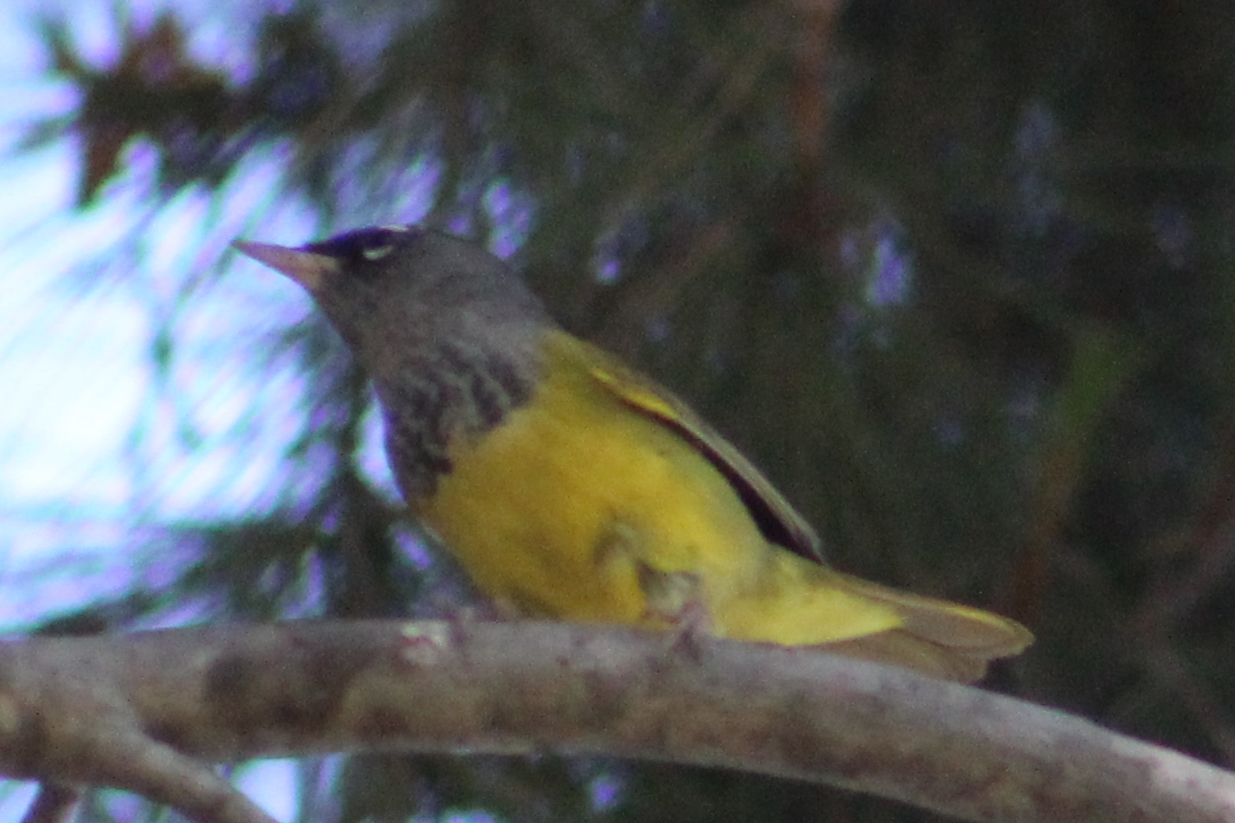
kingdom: Animalia
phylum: Chordata
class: Aves
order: Passeriformes
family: Parulidae
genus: Geothlypis
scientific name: Geothlypis tolmiei
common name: Macgillivray's warbler
